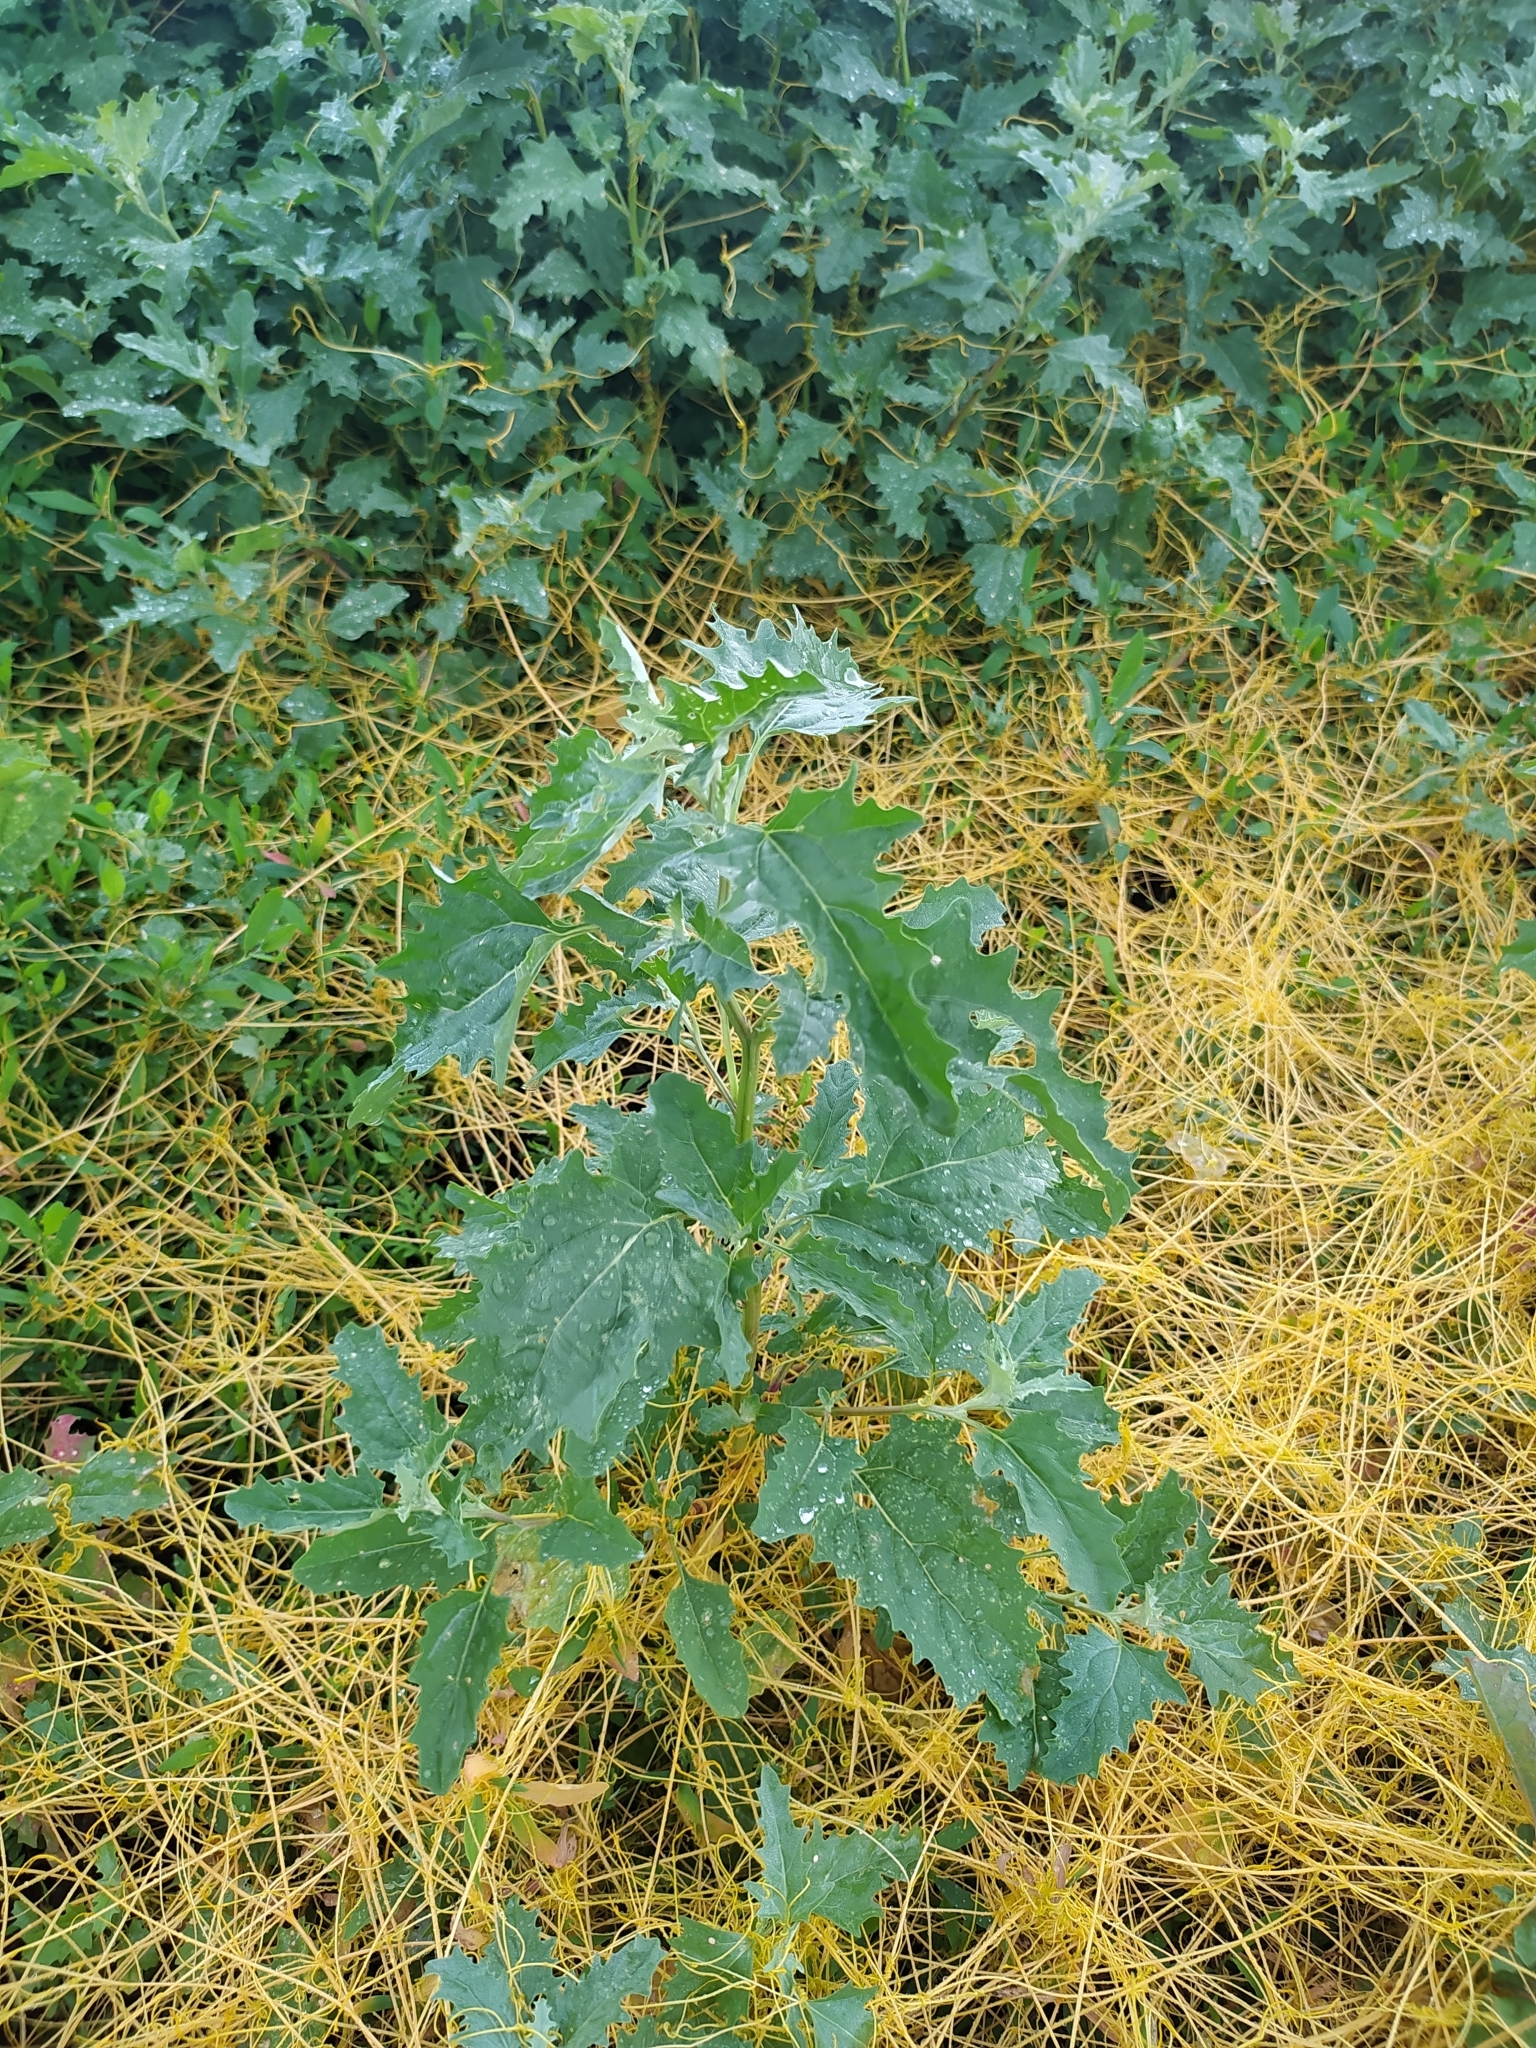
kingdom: Plantae
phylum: Tracheophyta
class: Magnoliopsida
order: Caryophyllales
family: Amaranthaceae
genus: Atriplex
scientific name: Atriplex tatarica
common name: Tatarian orache
